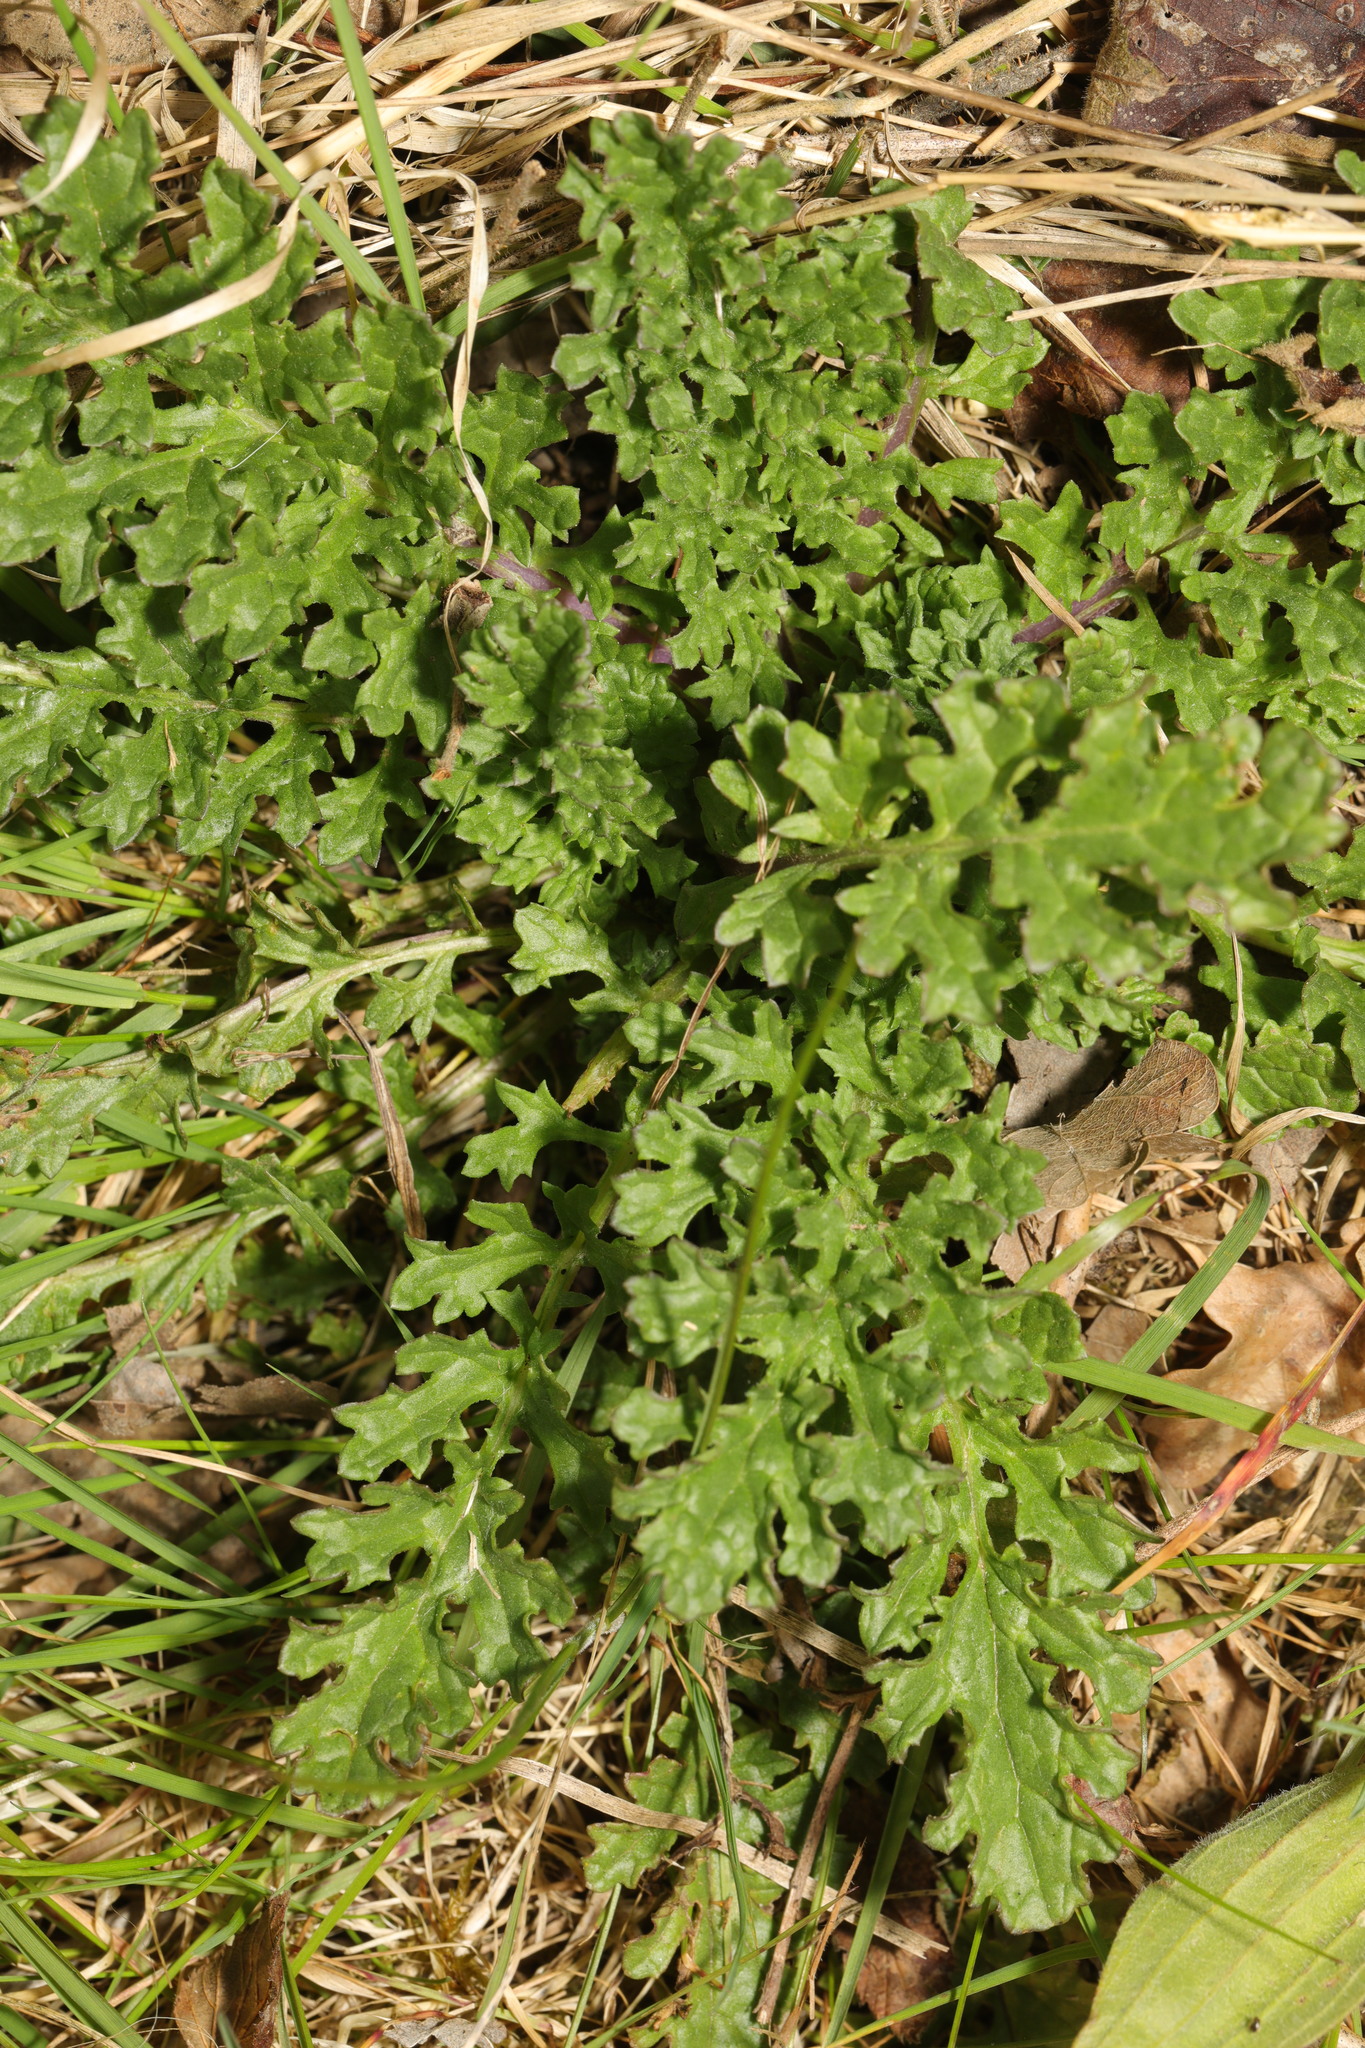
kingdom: Plantae
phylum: Tracheophyta
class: Magnoliopsida
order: Asterales
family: Asteraceae
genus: Jacobaea
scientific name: Jacobaea vulgaris
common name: Stinking willie
